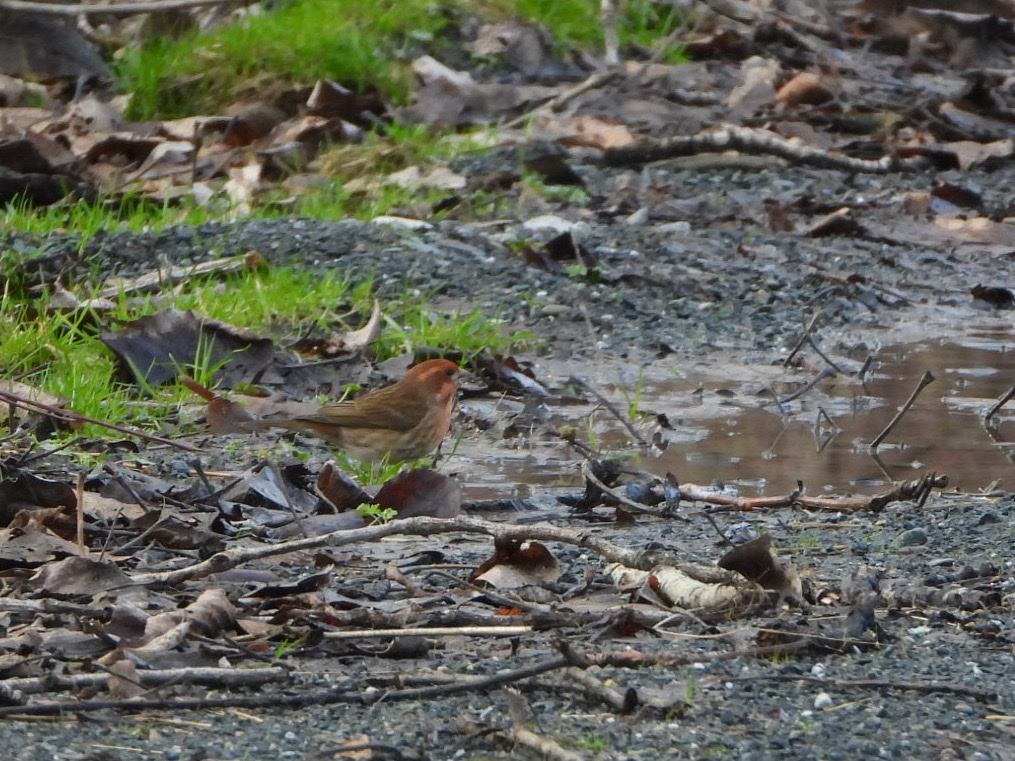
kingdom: Animalia
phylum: Chordata
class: Aves
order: Passeriformes
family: Fringillidae
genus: Haemorhous
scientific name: Haemorhous purpureus
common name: Purple finch
